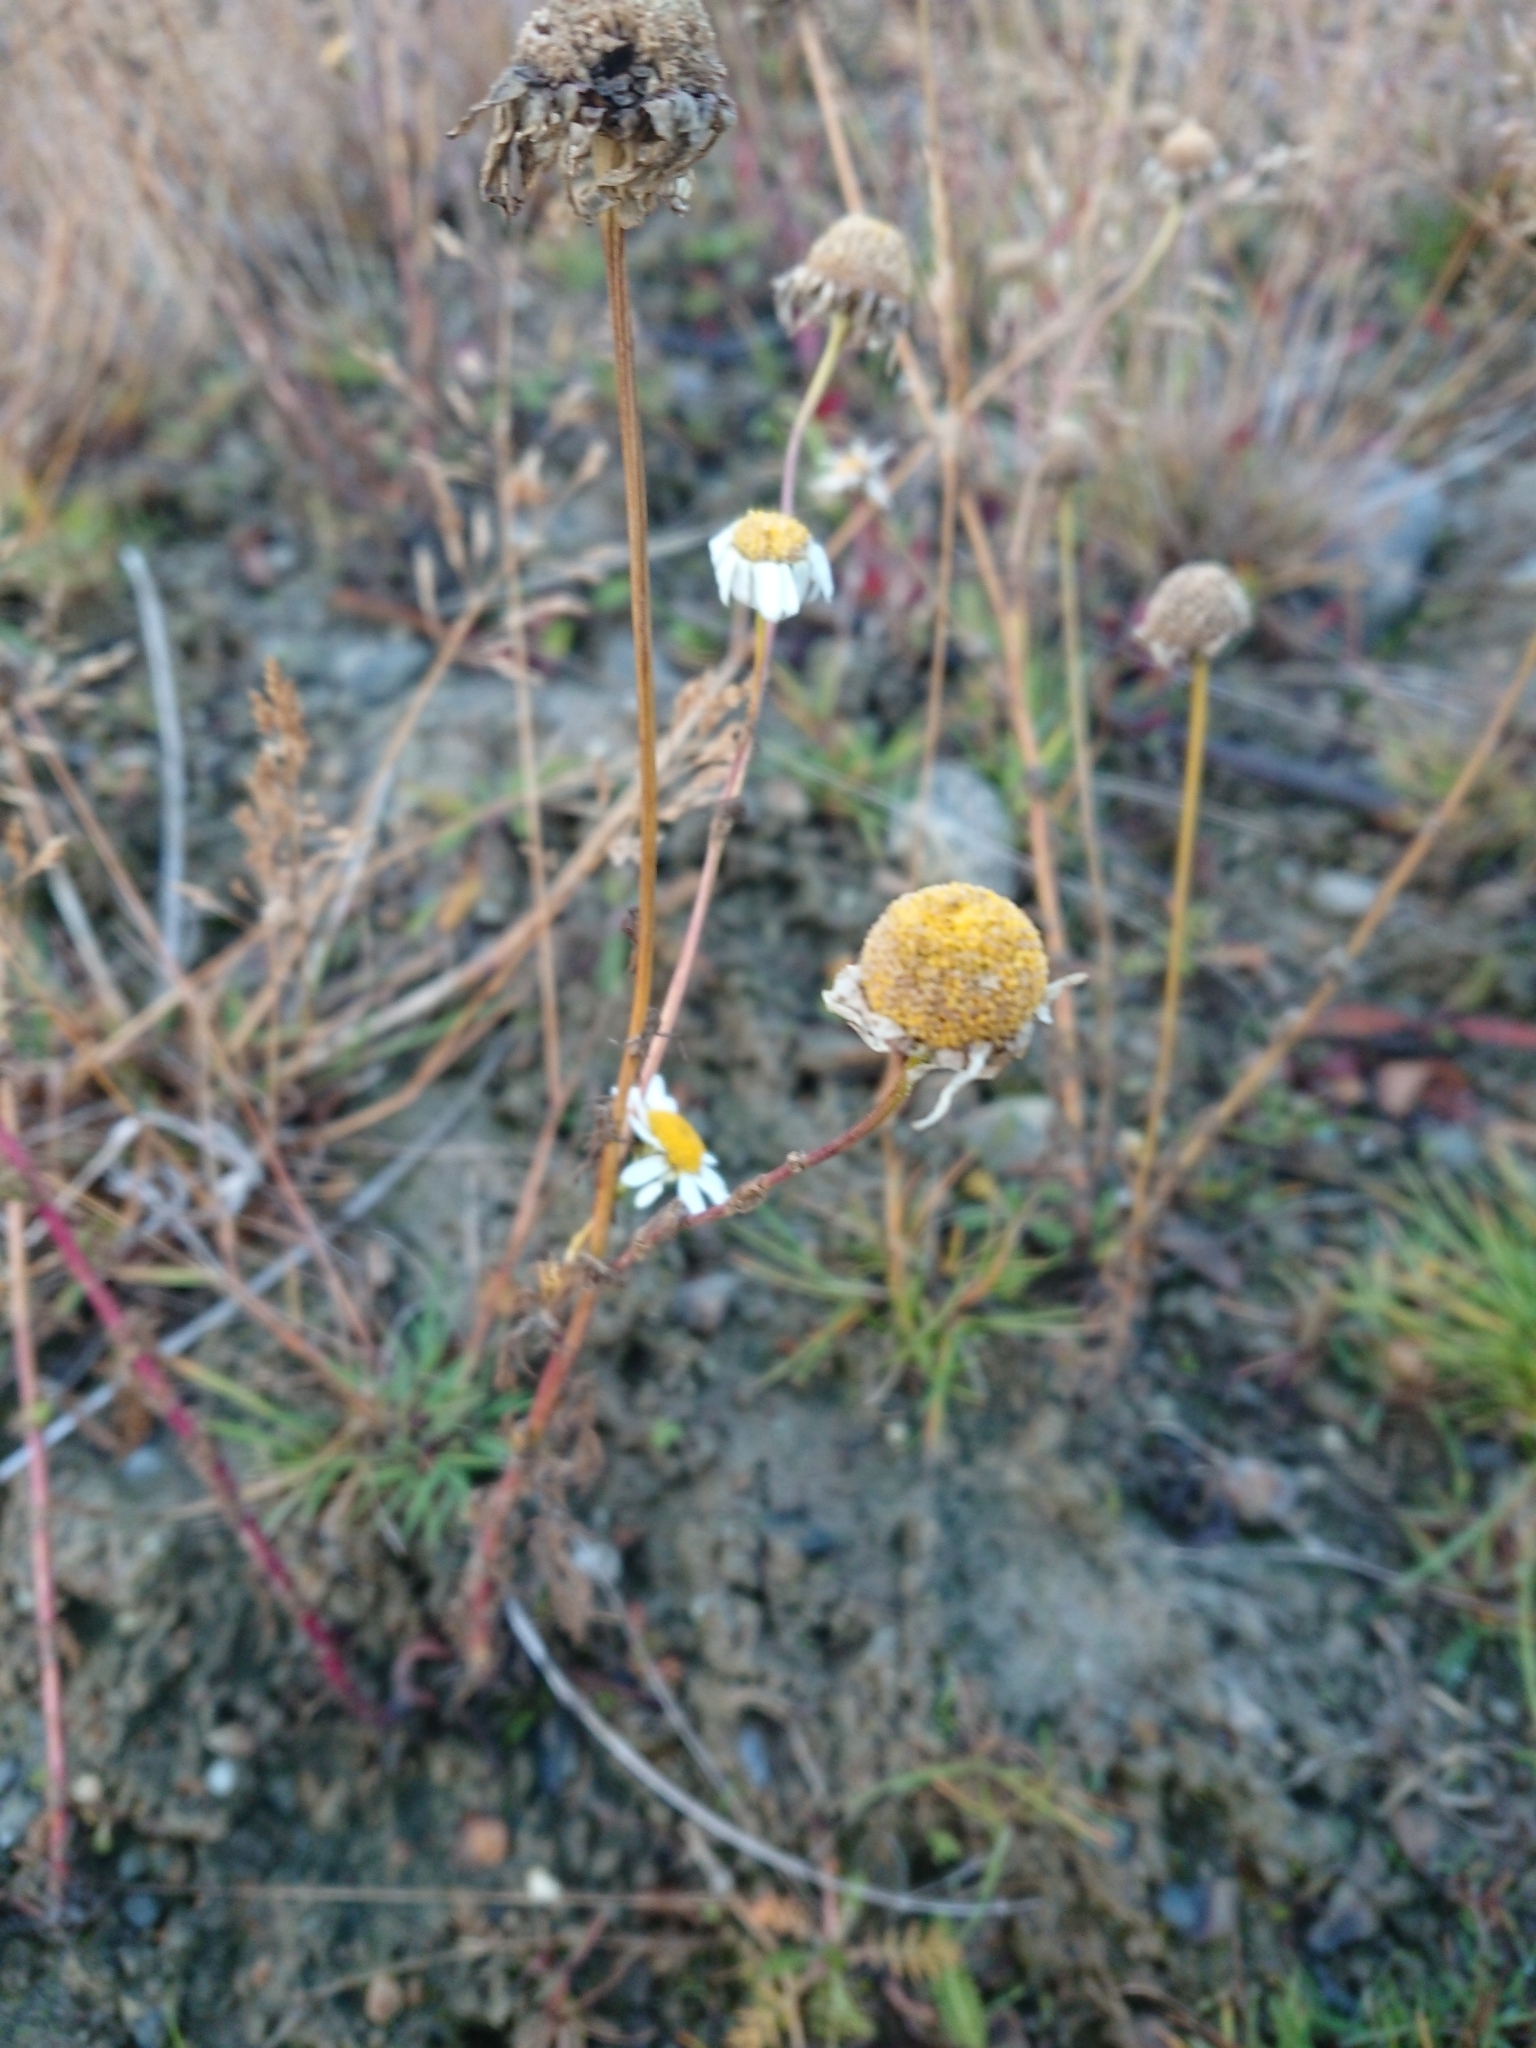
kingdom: Plantae
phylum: Tracheophyta
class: Magnoliopsida
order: Asterales
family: Asteraceae
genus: Tripleurospermum
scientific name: Tripleurospermum inodorum
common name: Scentless mayweed
